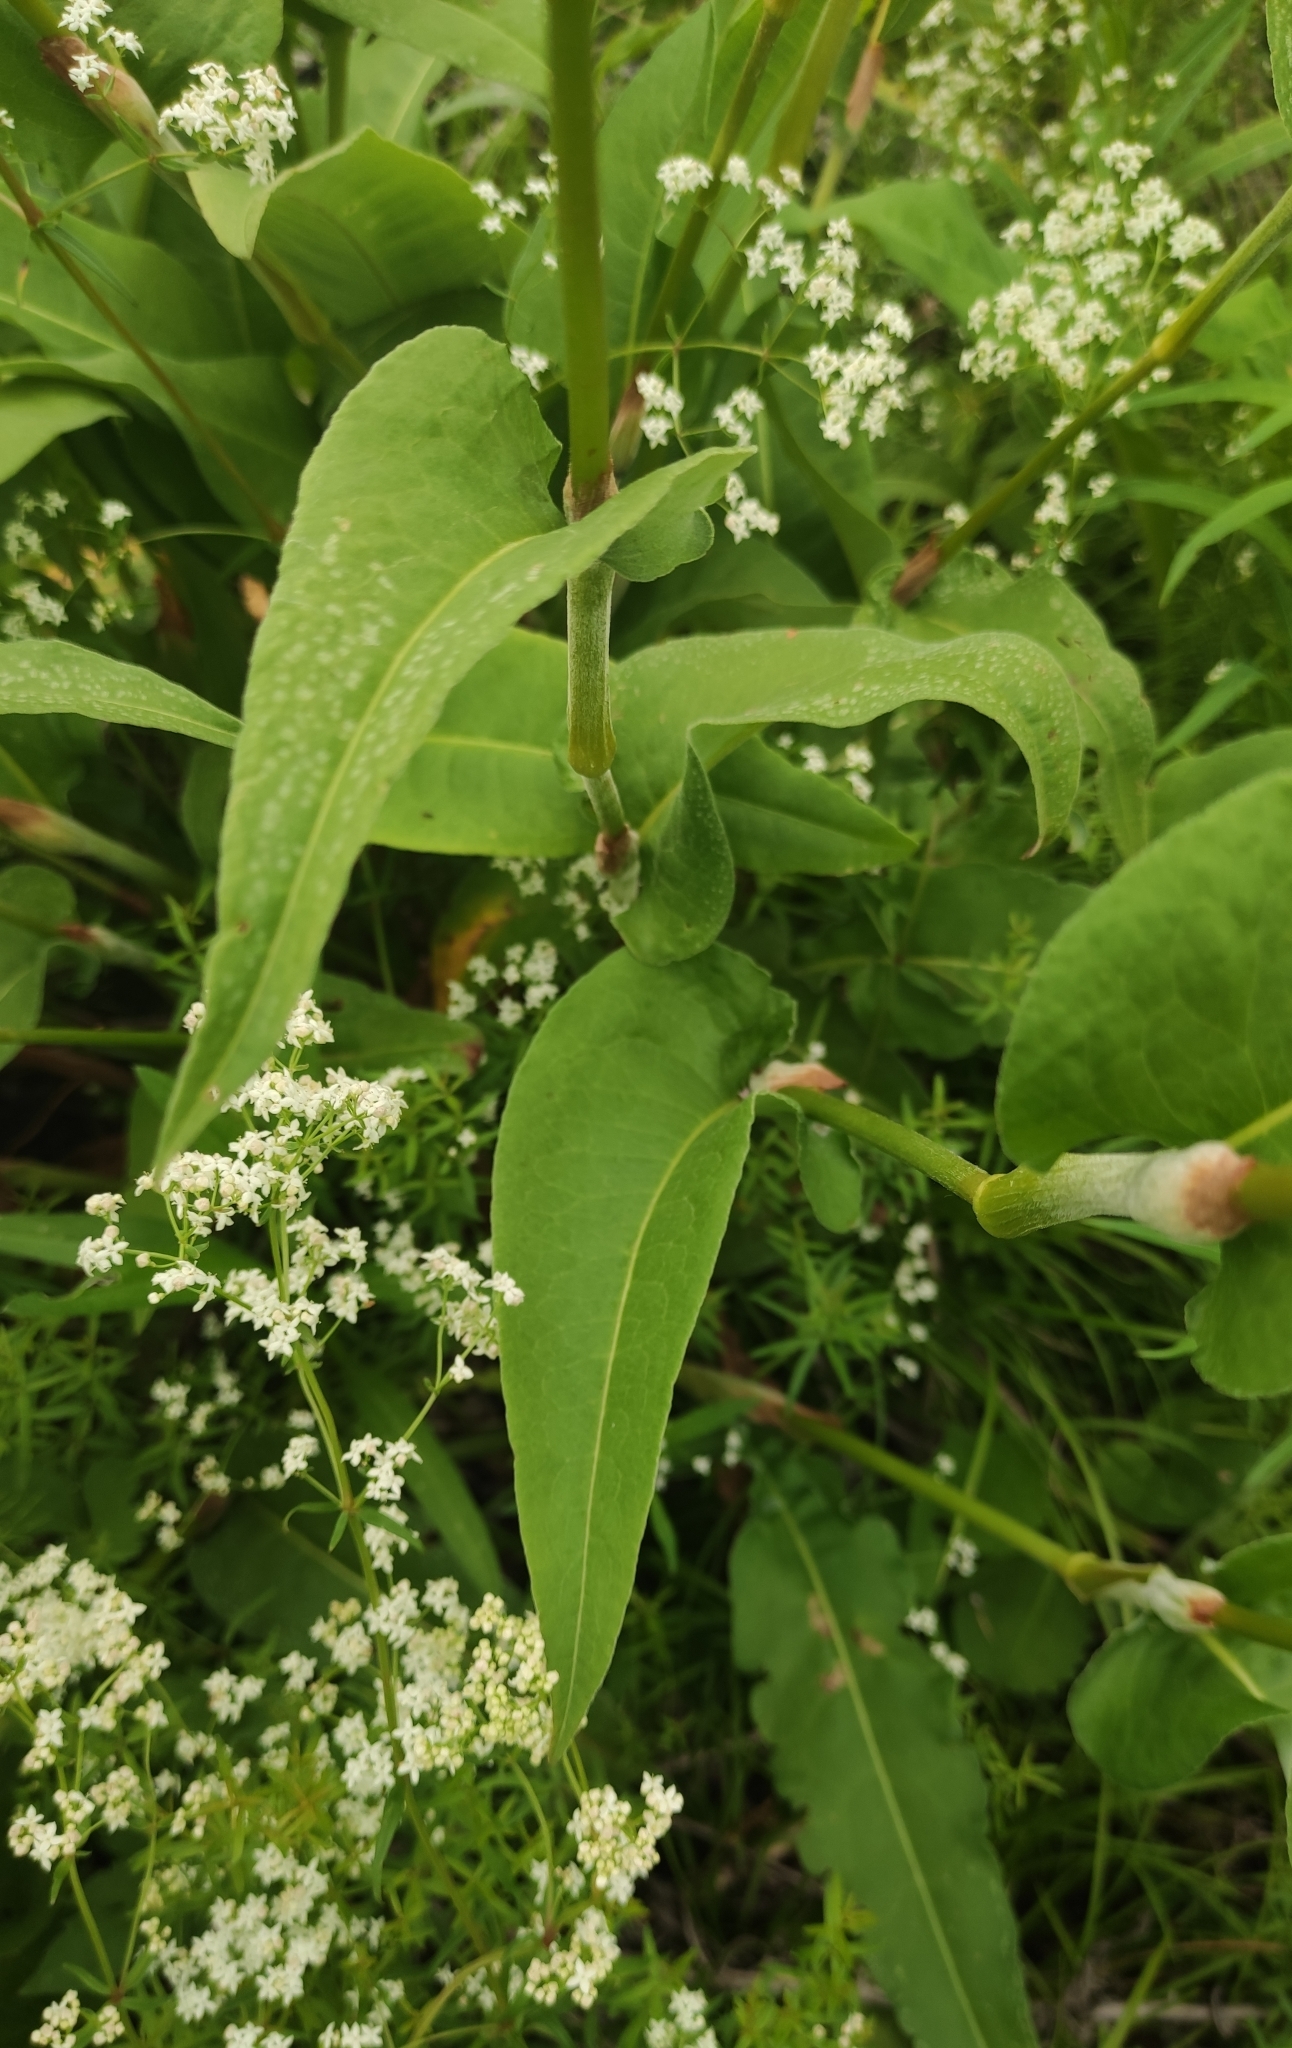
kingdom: Plantae
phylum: Tracheophyta
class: Magnoliopsida
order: Caryophyllales
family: Polygonaceae
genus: Bistorta
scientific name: Bistorta officinalis
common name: Common bistort
